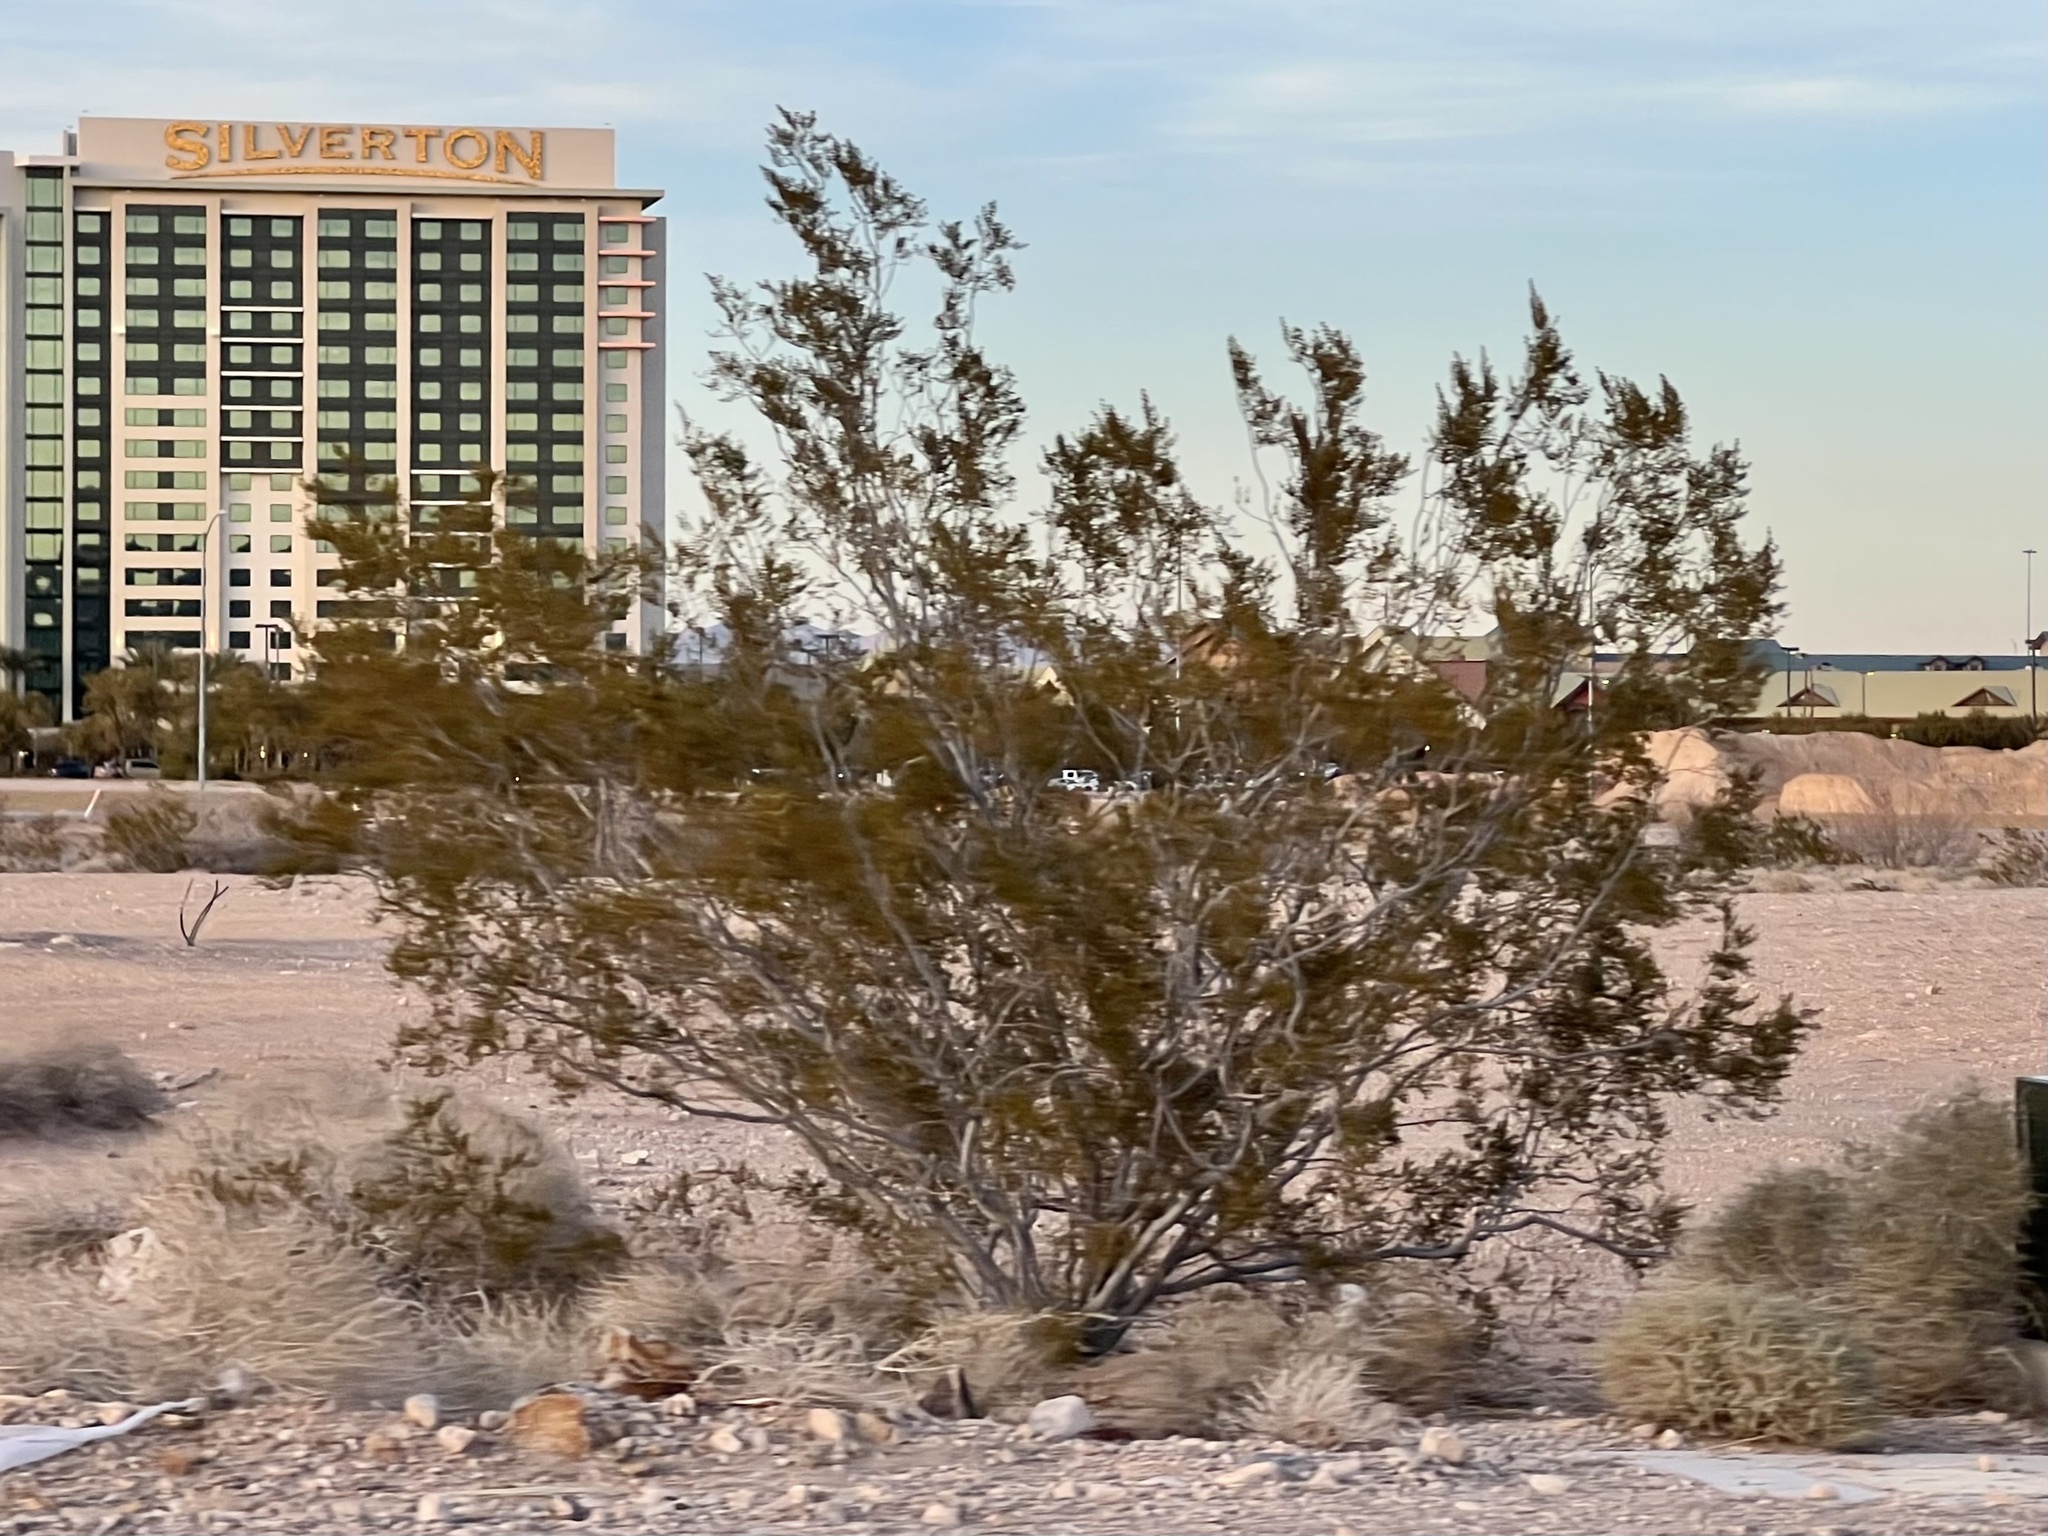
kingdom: Plantae
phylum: Tracheophyta
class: Magnoliopsida
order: Zygophyllales
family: Zygophyllaceae
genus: Larrea
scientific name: Larrea tridentata
